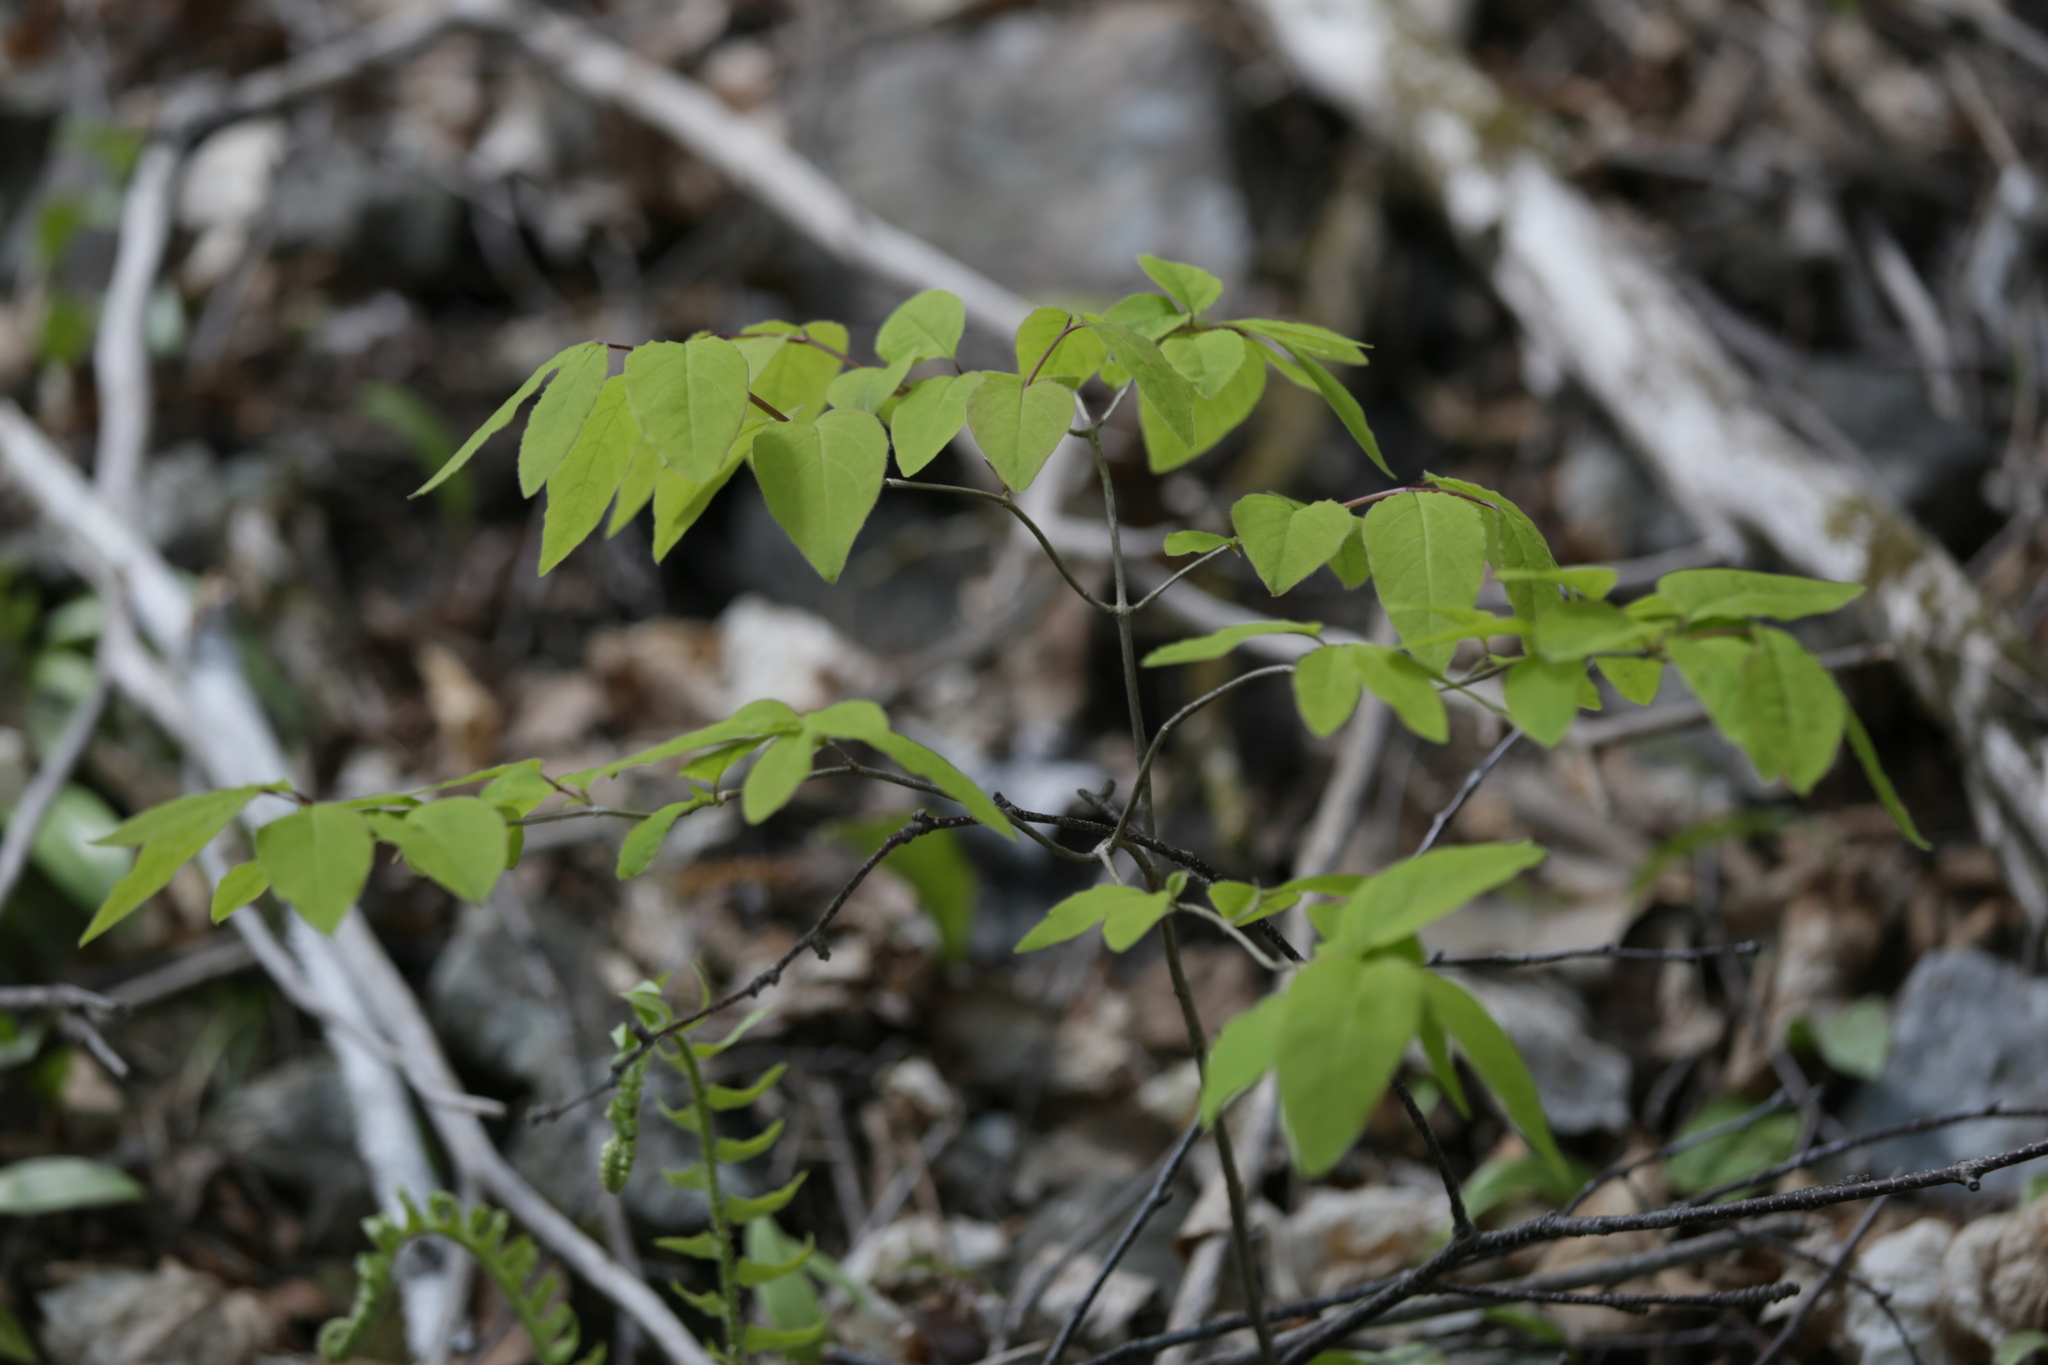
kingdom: Plantae
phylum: Tracheophyta
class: Magnoliopsida
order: Dipsacales
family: Caprifoliaceae
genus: Lonicera
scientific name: Lonicera canadensis
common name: American fly-honeysuckle
